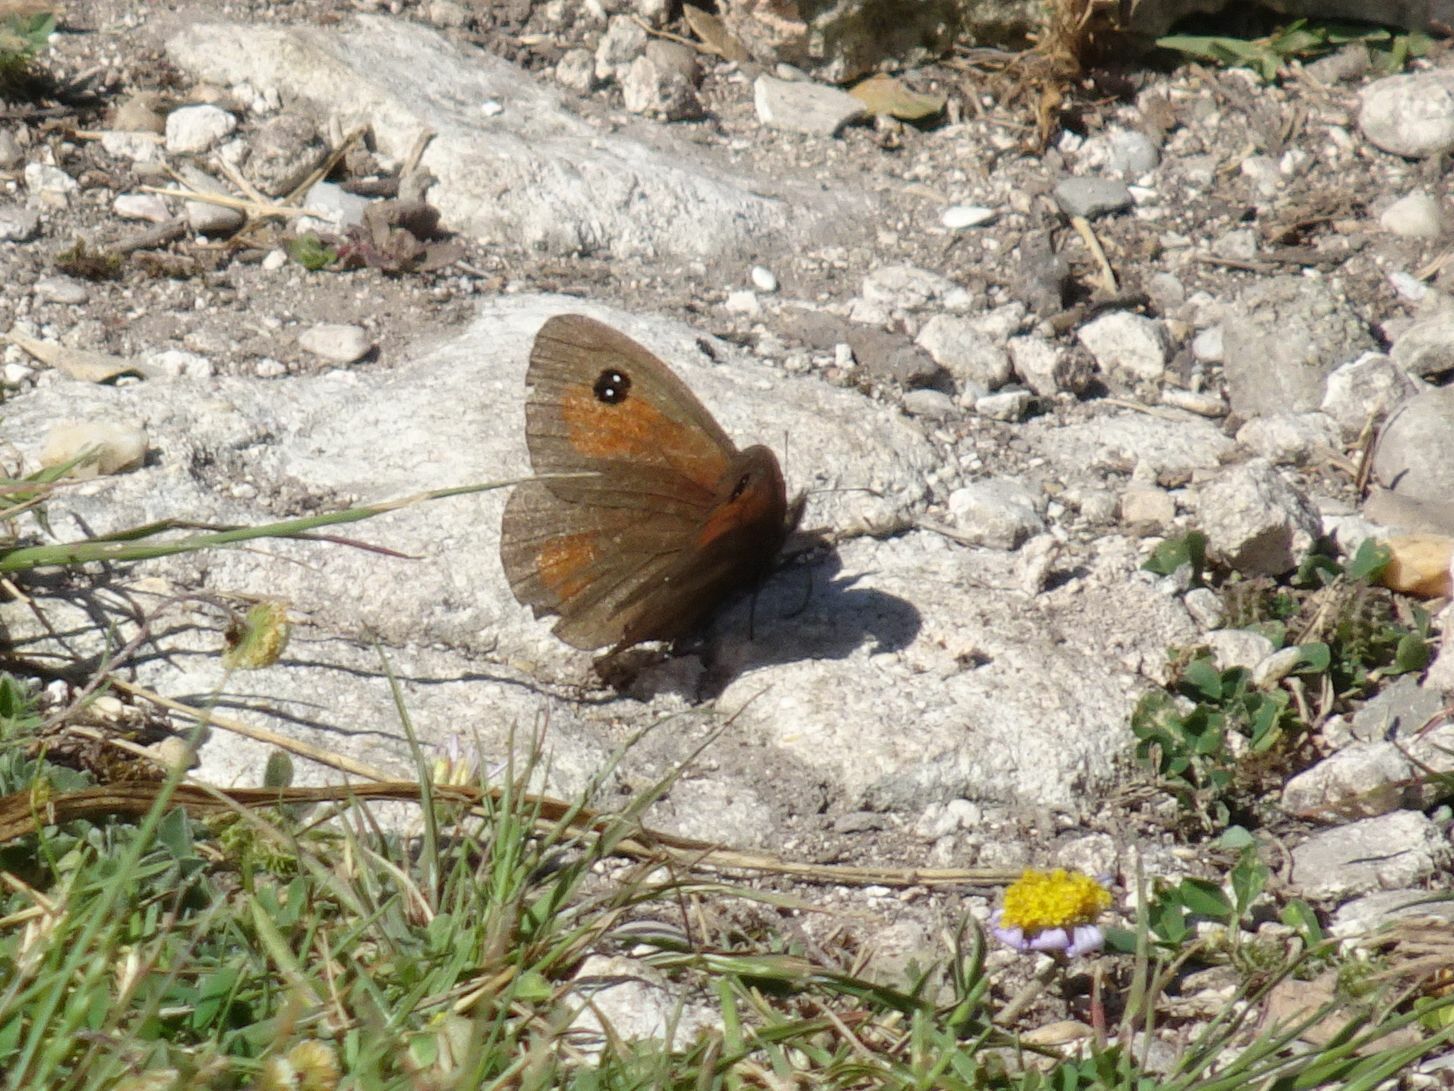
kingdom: Animalia
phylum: Arthropoda
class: Insecta
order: Lepidoptera
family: Nymphalidae
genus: Erebia
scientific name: Erebia
